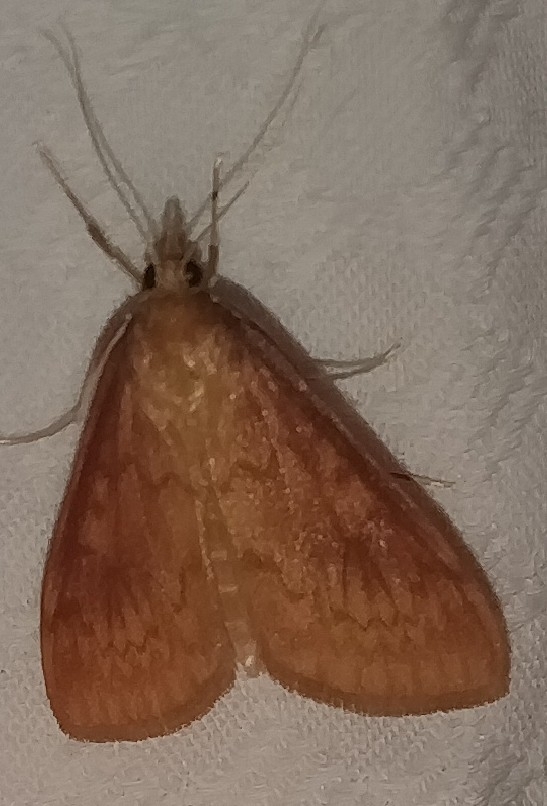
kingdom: Animalia
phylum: Arthropoda
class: Insecta
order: Lepidoptera
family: Crambidae
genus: Ostrinia
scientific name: Ostrinia penitalis
